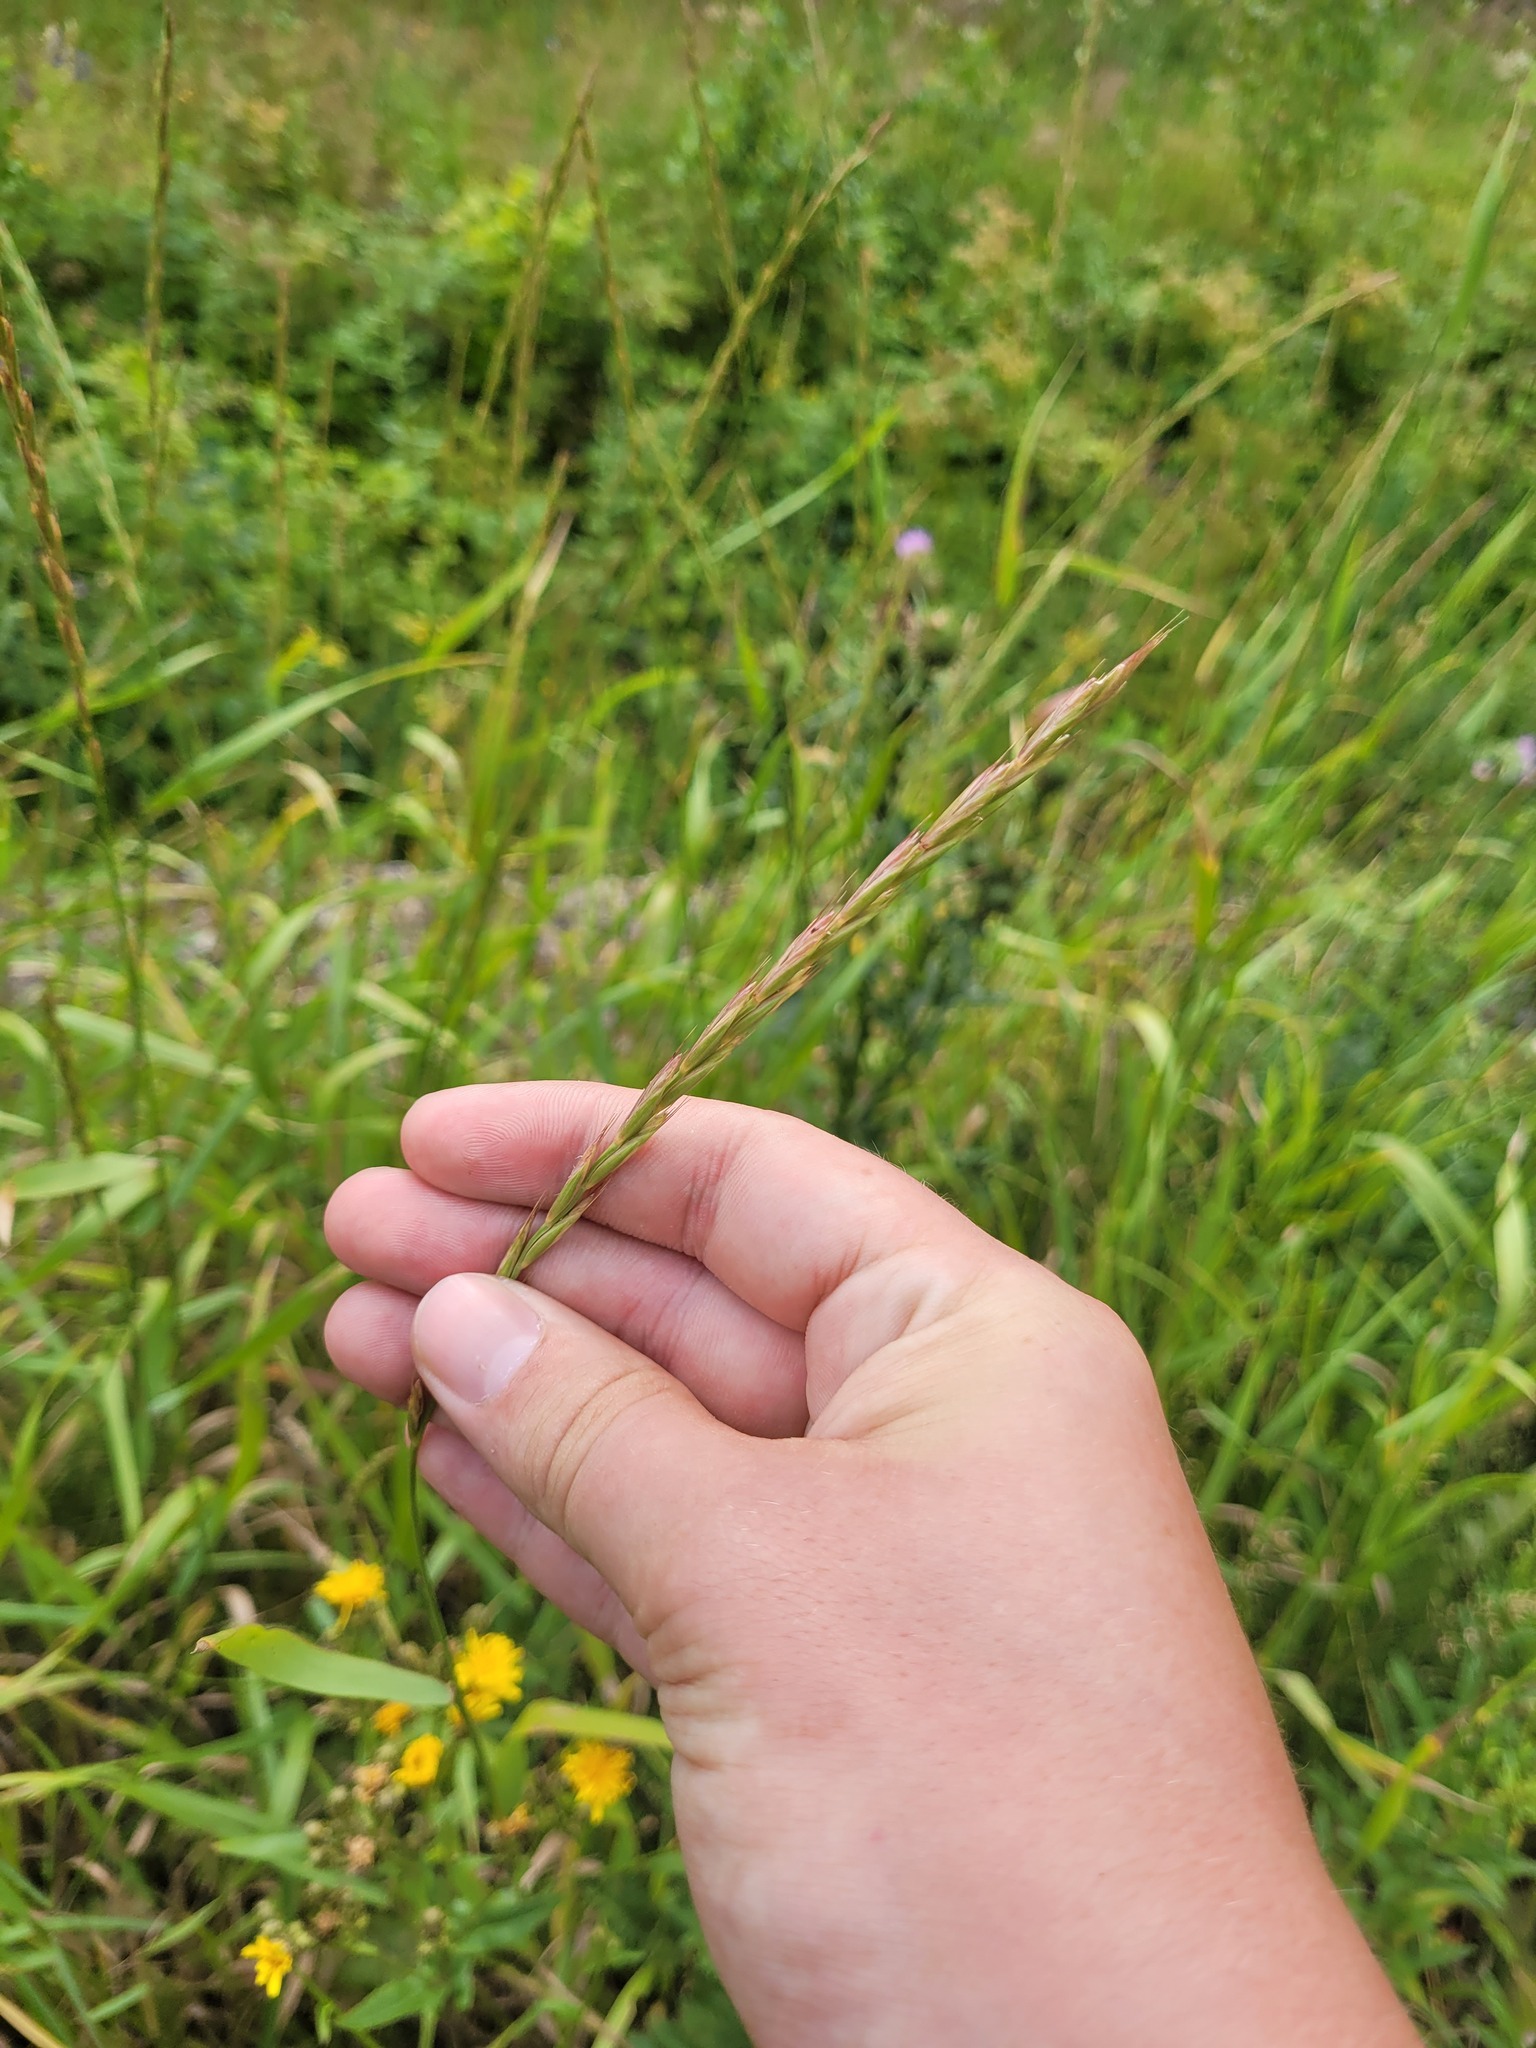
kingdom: Plantae
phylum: Tracheophyta
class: Liliopsida
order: Poales
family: Poaceae
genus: Elymus
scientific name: Elymus repens
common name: Quackgrass
